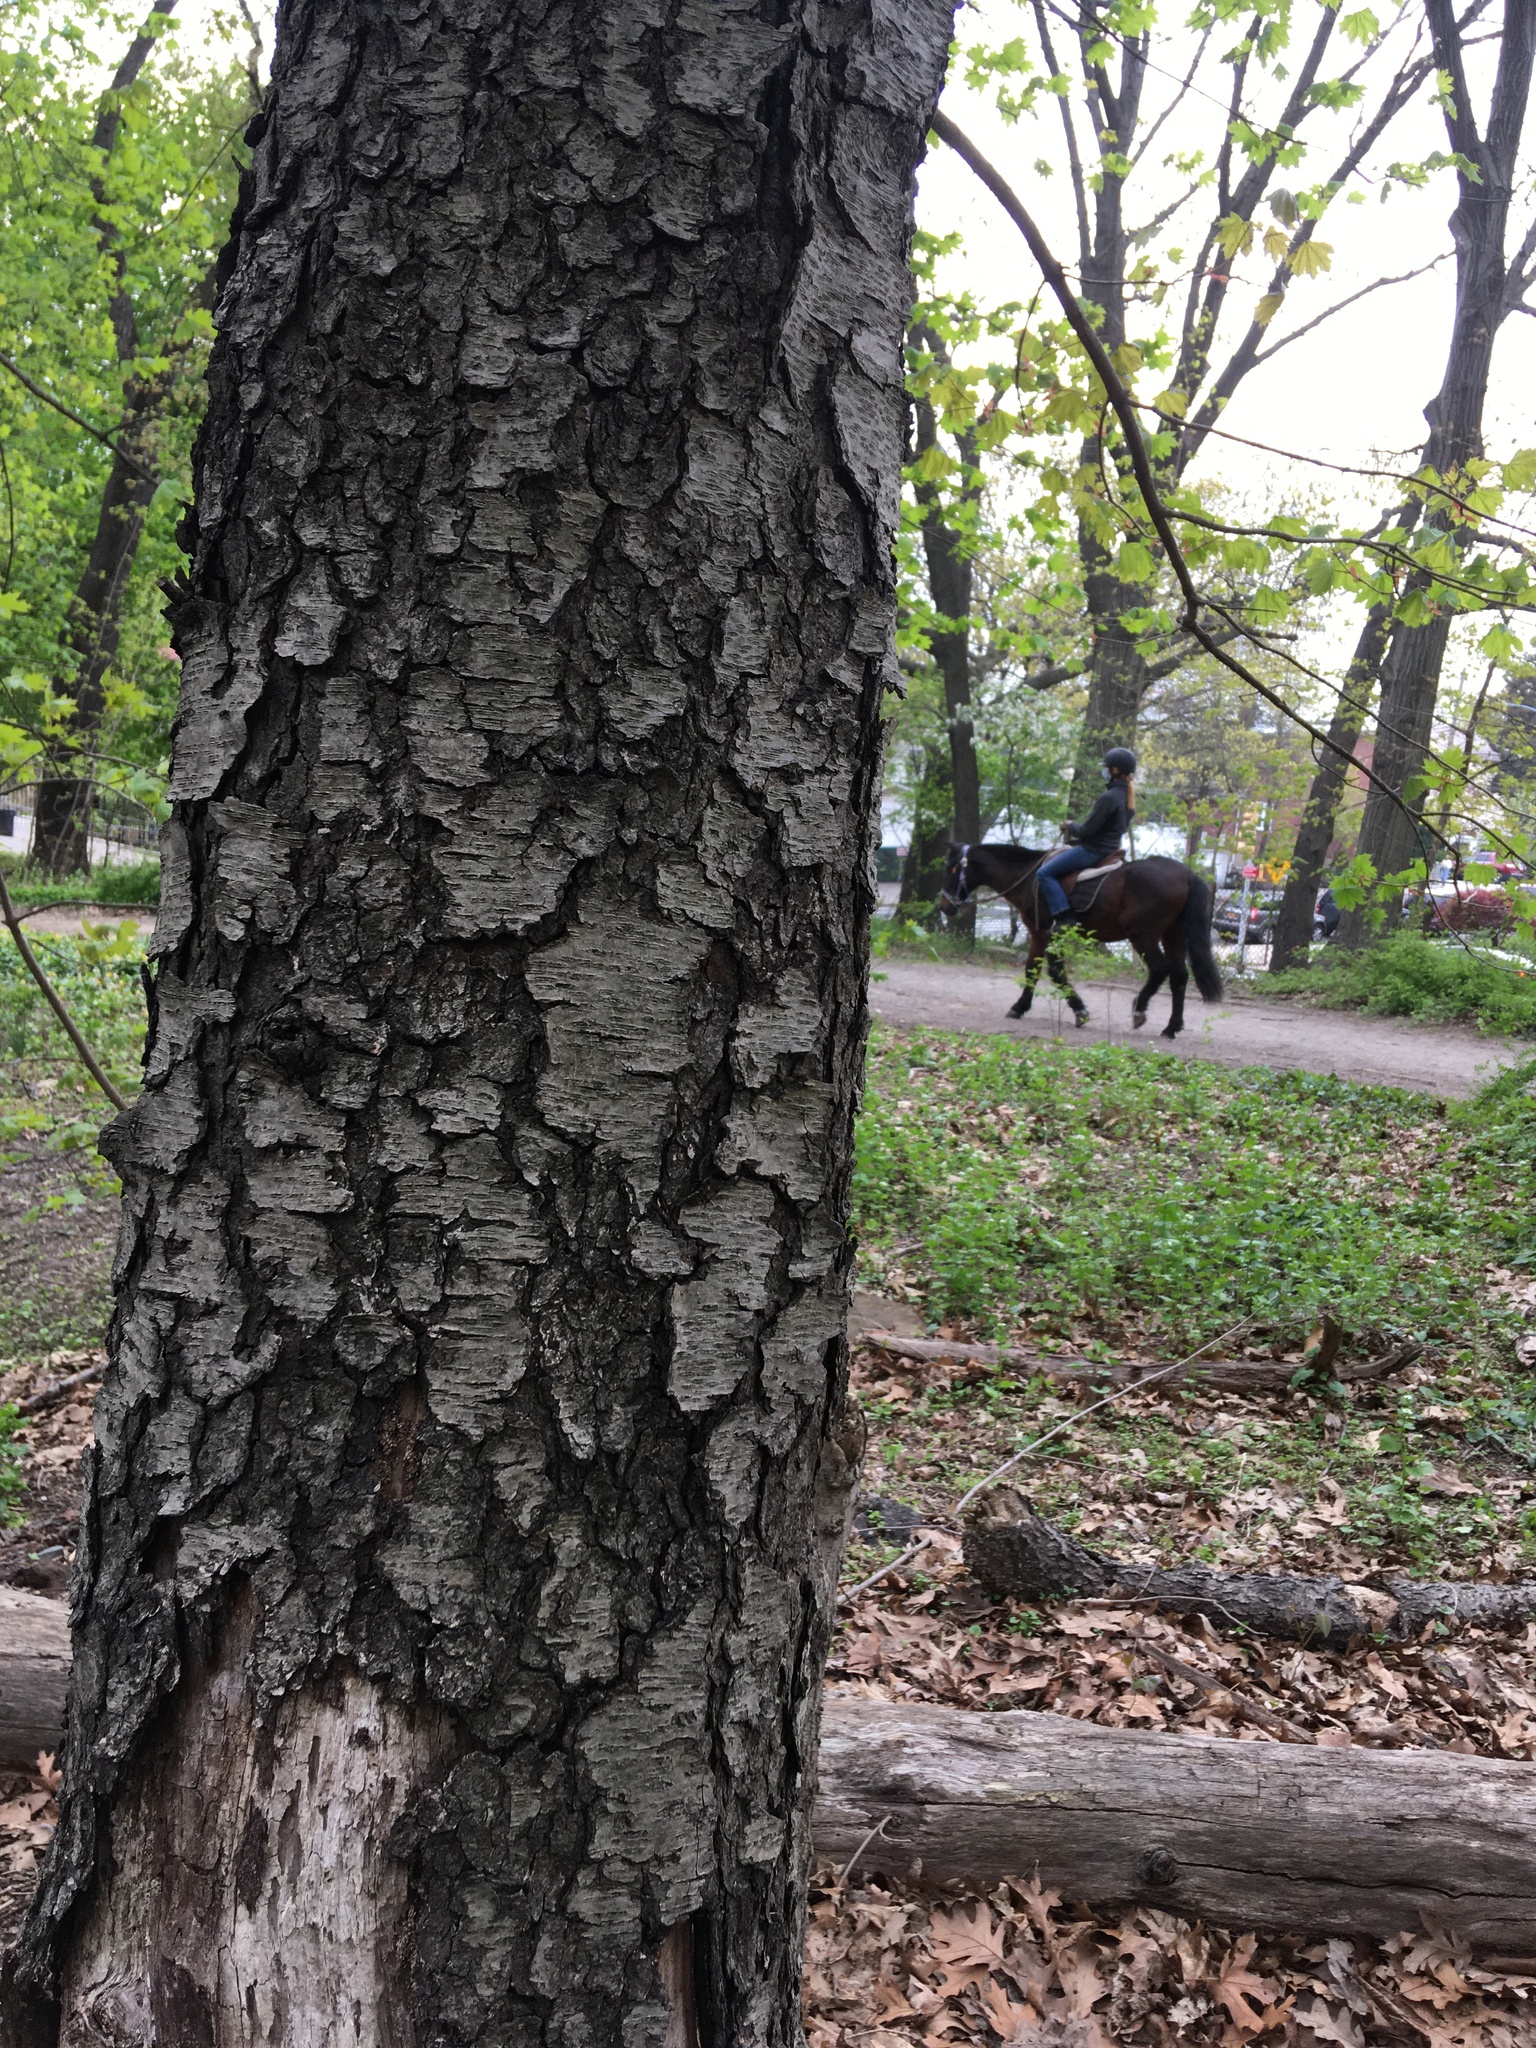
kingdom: Plantae
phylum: Tracheophyta
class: Magnoliopsida
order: Rosales
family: Rosaceae
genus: Prunus
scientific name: Prunus serotina
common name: Black cherry
